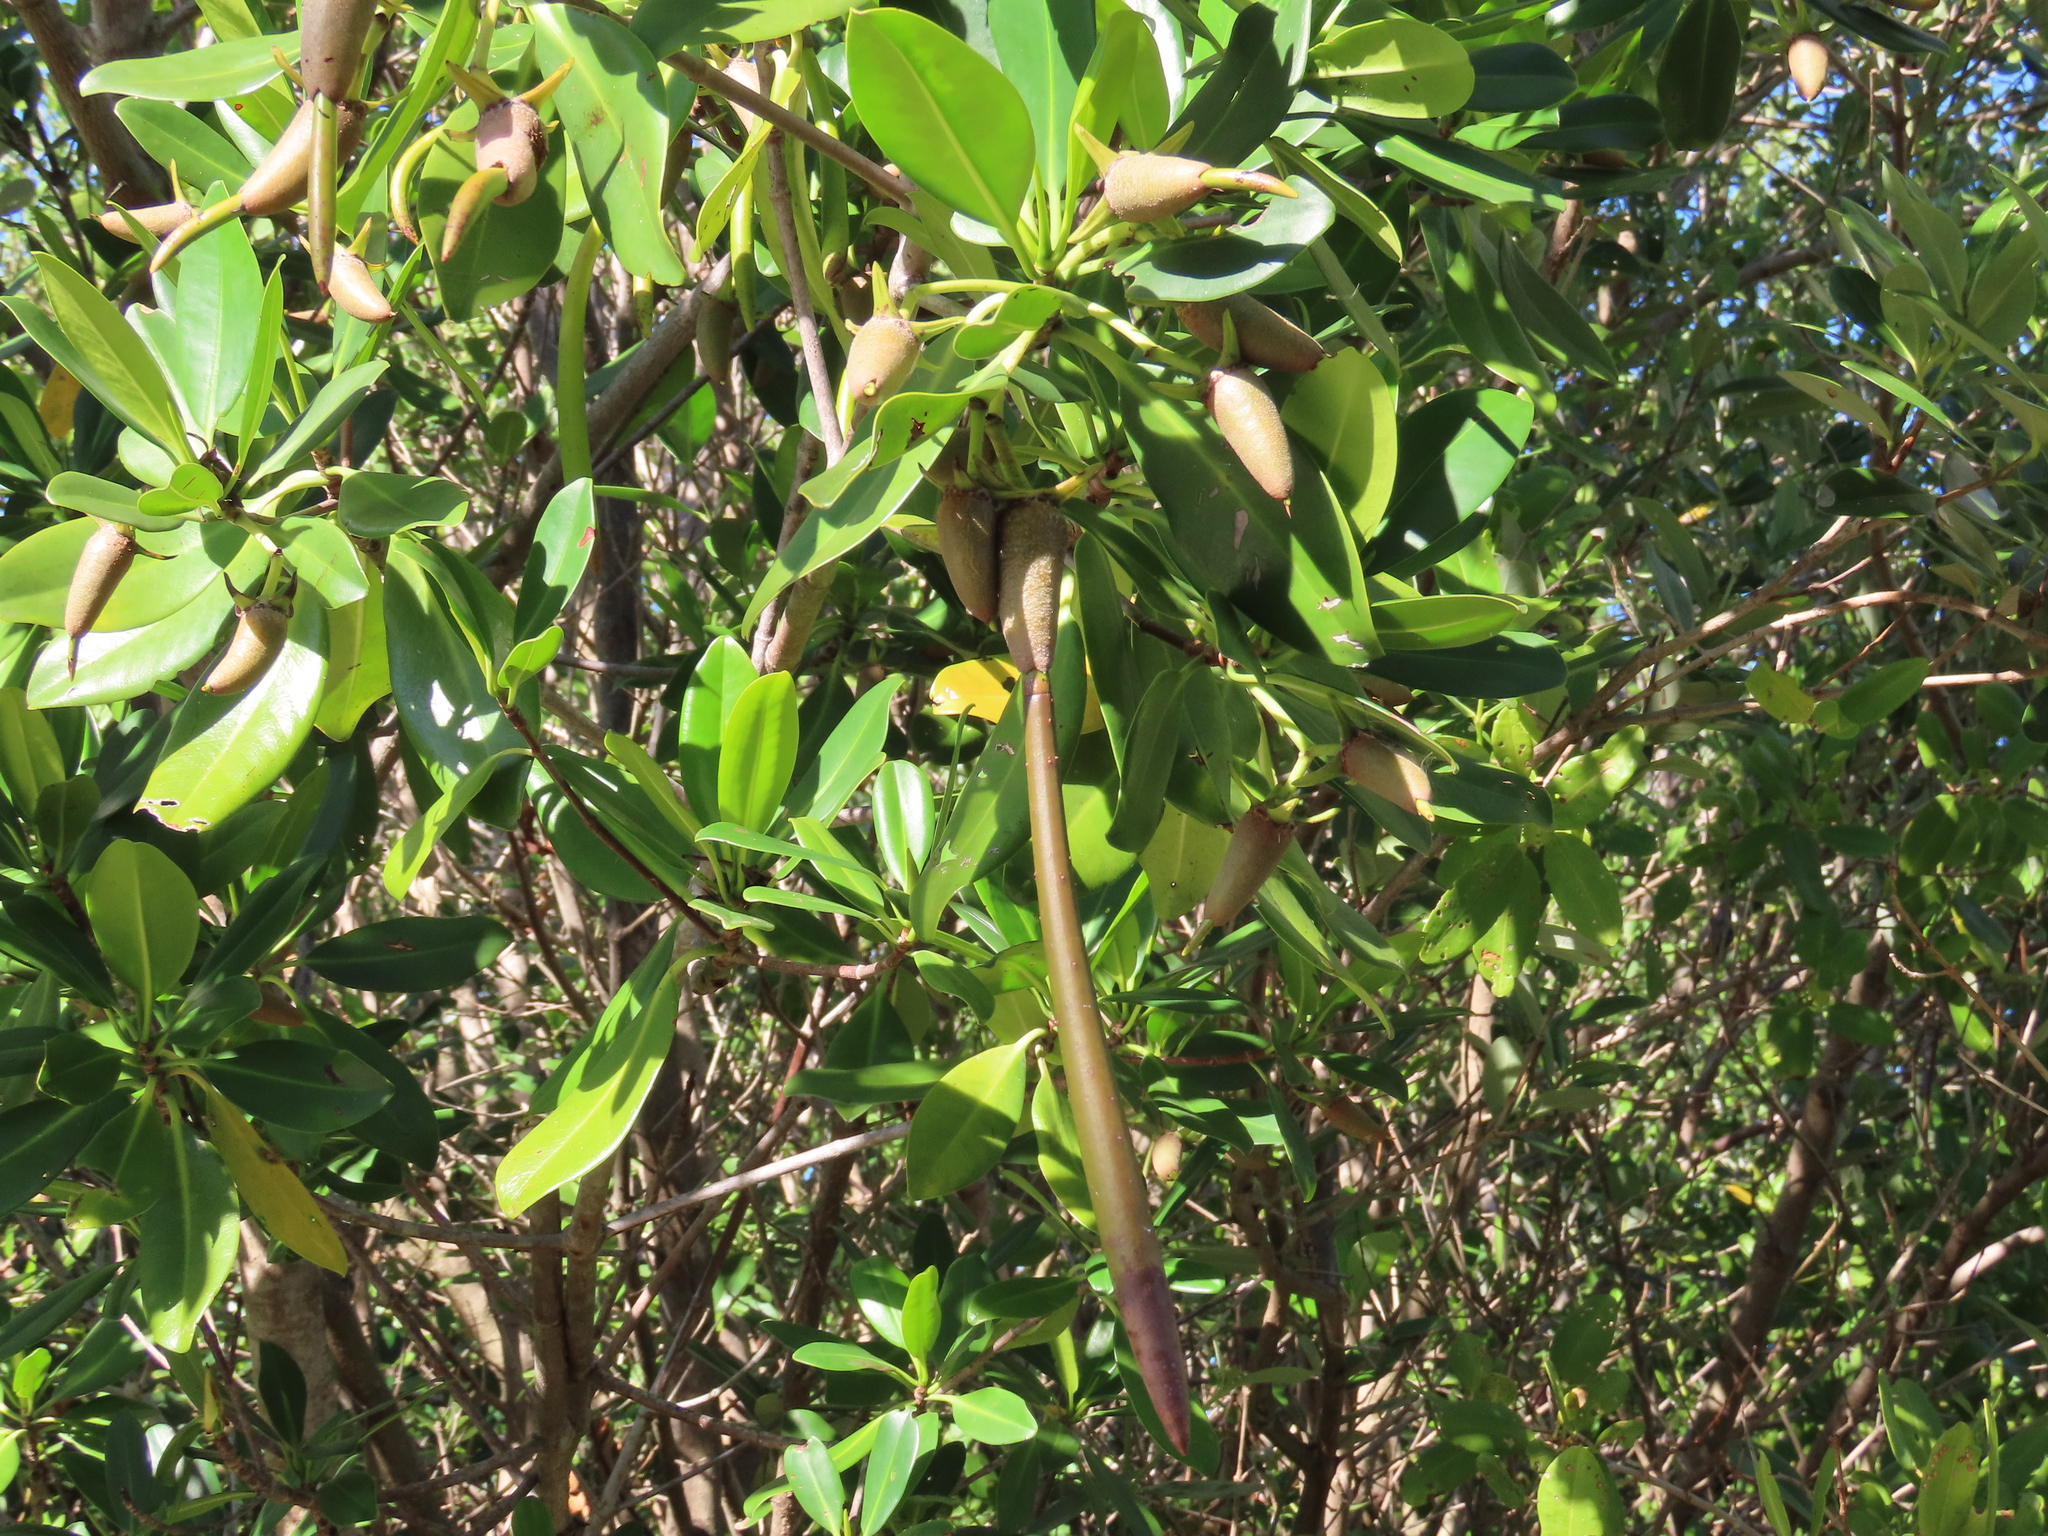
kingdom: Plantae
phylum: Tracheophyta
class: Magnoliopsida
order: Malpighiales
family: Rhizophoraceae
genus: Rhizophora
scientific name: Rhizophora mangle
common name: Red mangrove
